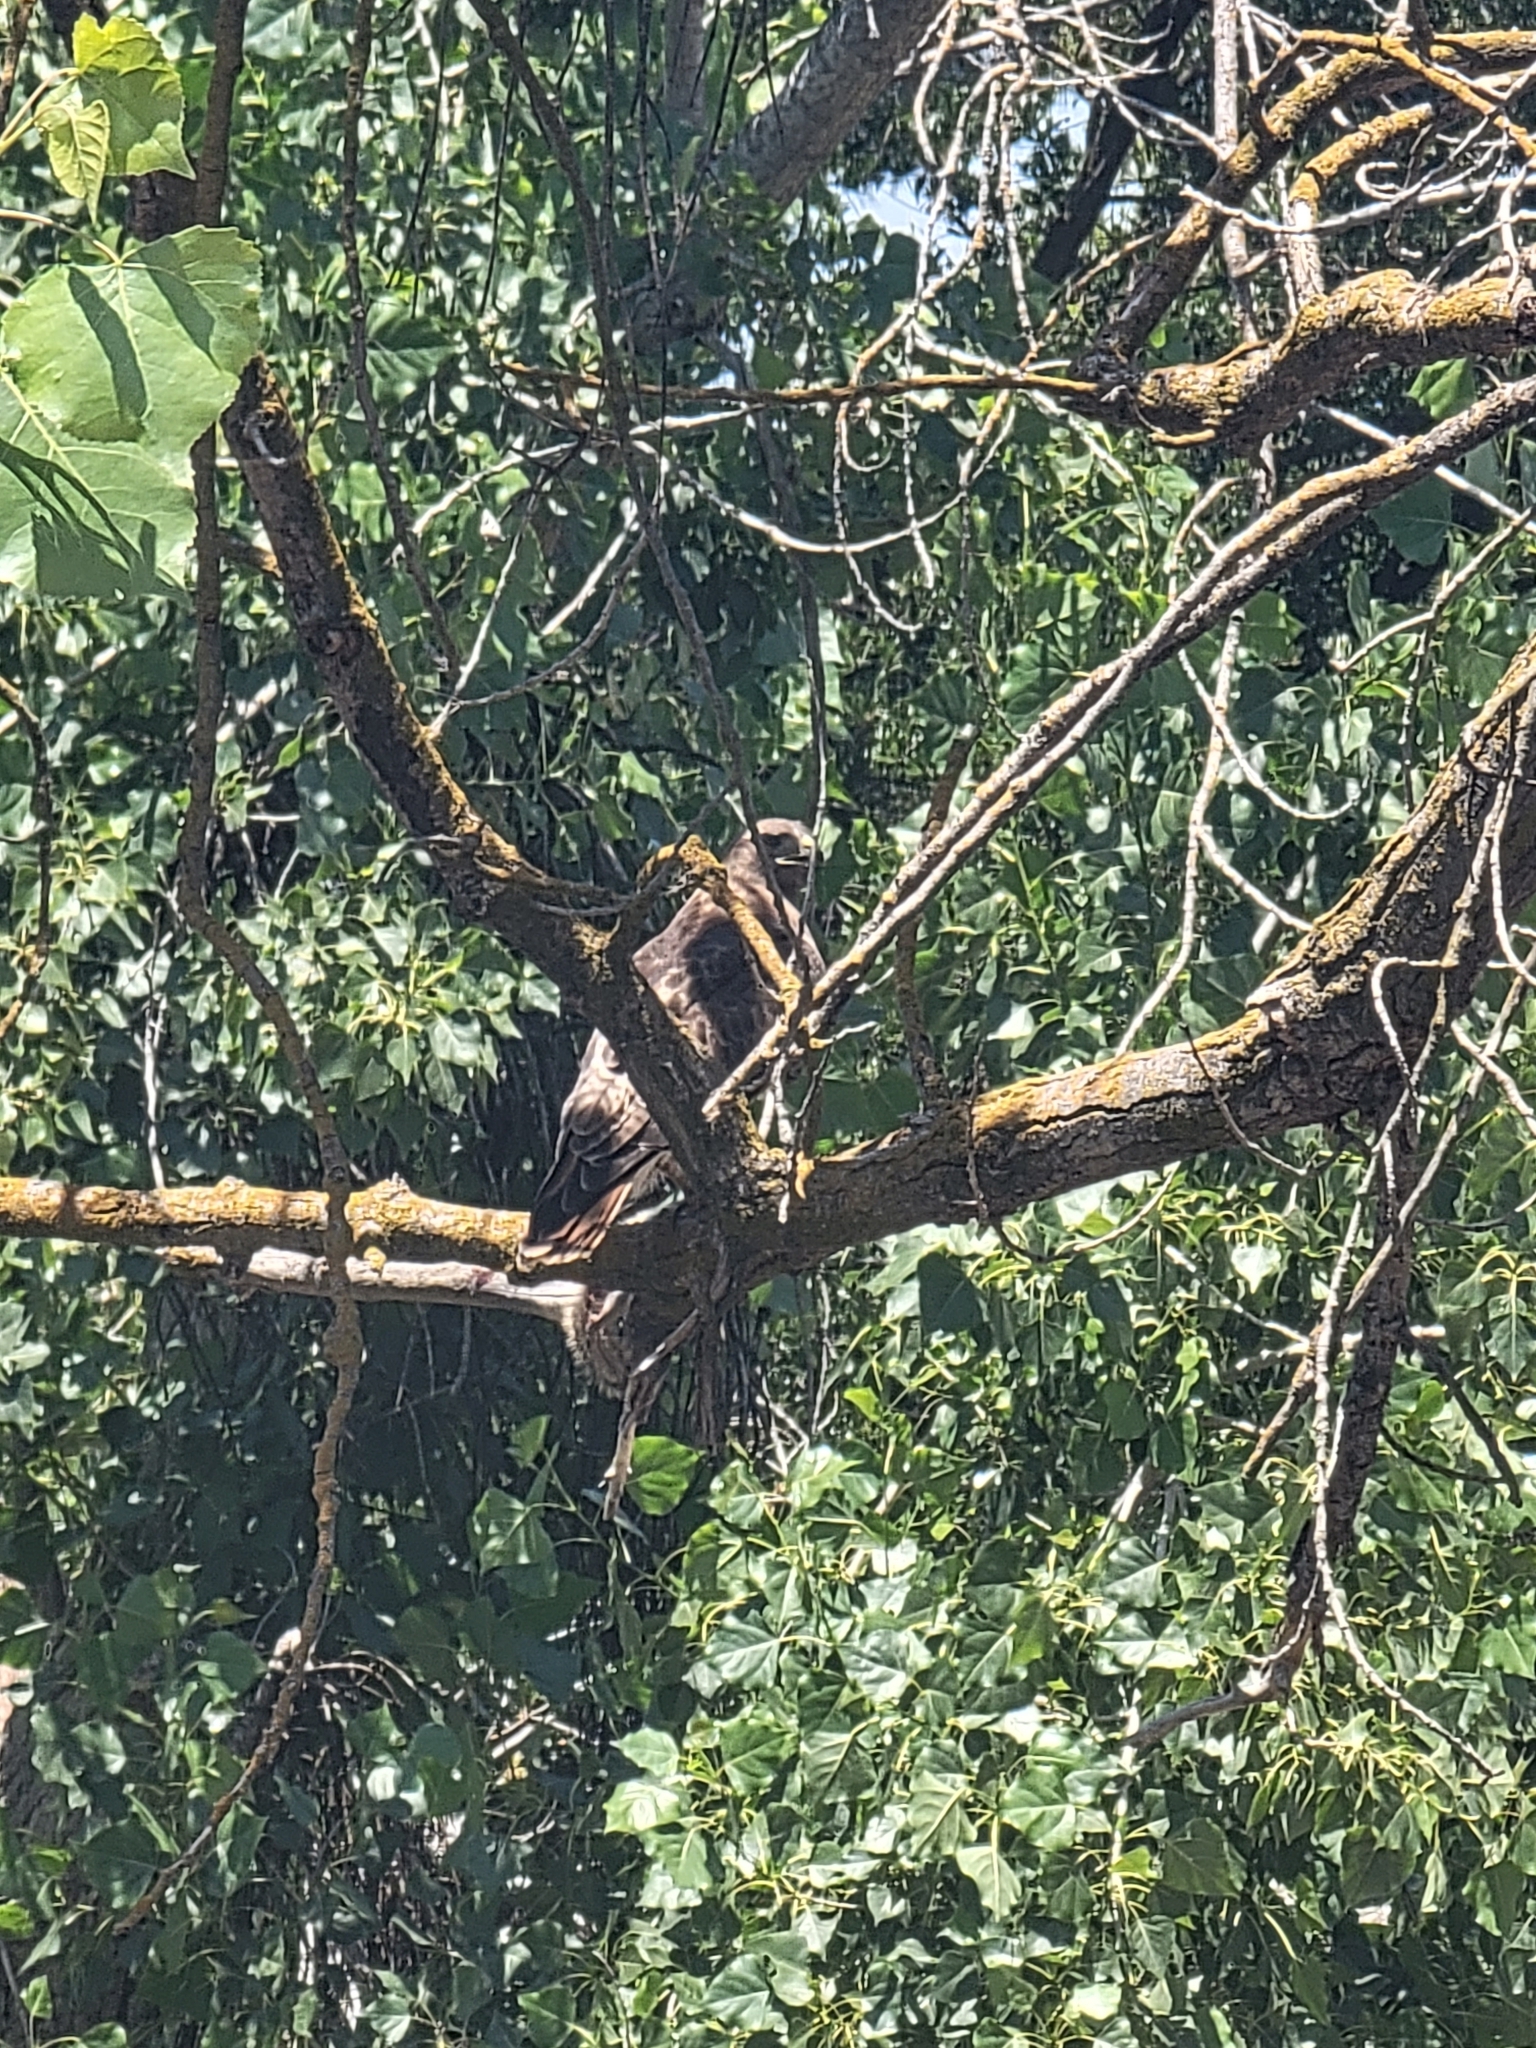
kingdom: Animalia
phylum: Chordata
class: Aves
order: Accipitriformes
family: Accipitridae
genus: Buteo
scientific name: Buteo jamaicensis
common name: Red-tailed hawk
